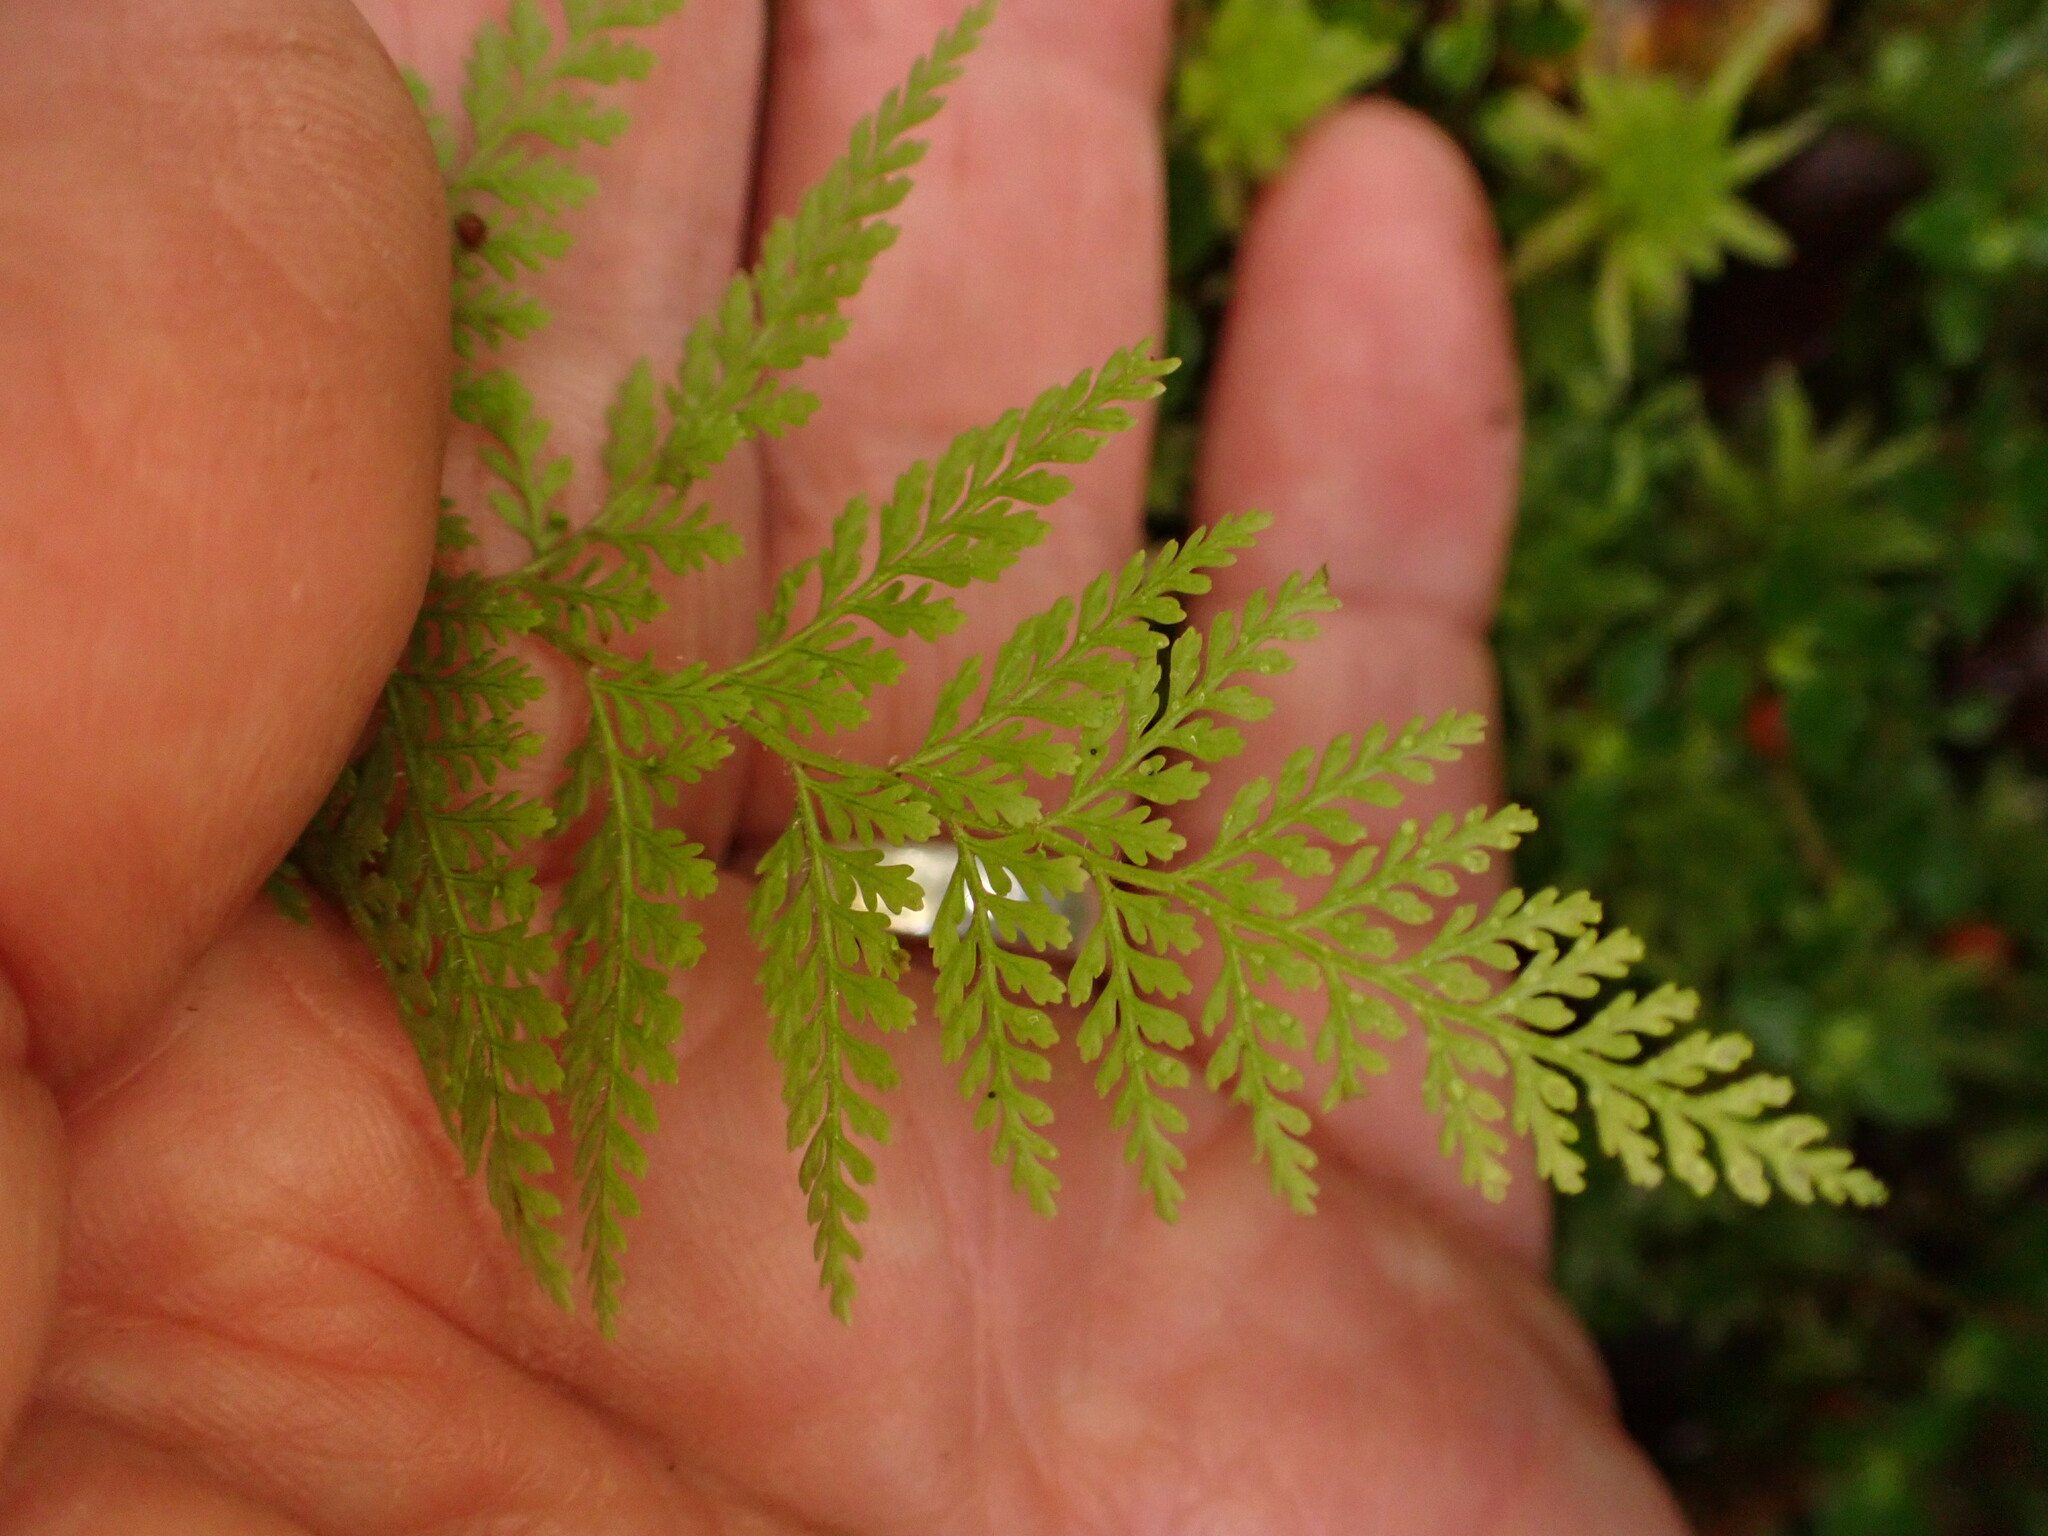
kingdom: Plantae
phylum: Tracheophyta
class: Polypodiopsida
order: Polypodiales
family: Dennstaedtiaceae
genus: Paesia
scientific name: Paesia scaberula
